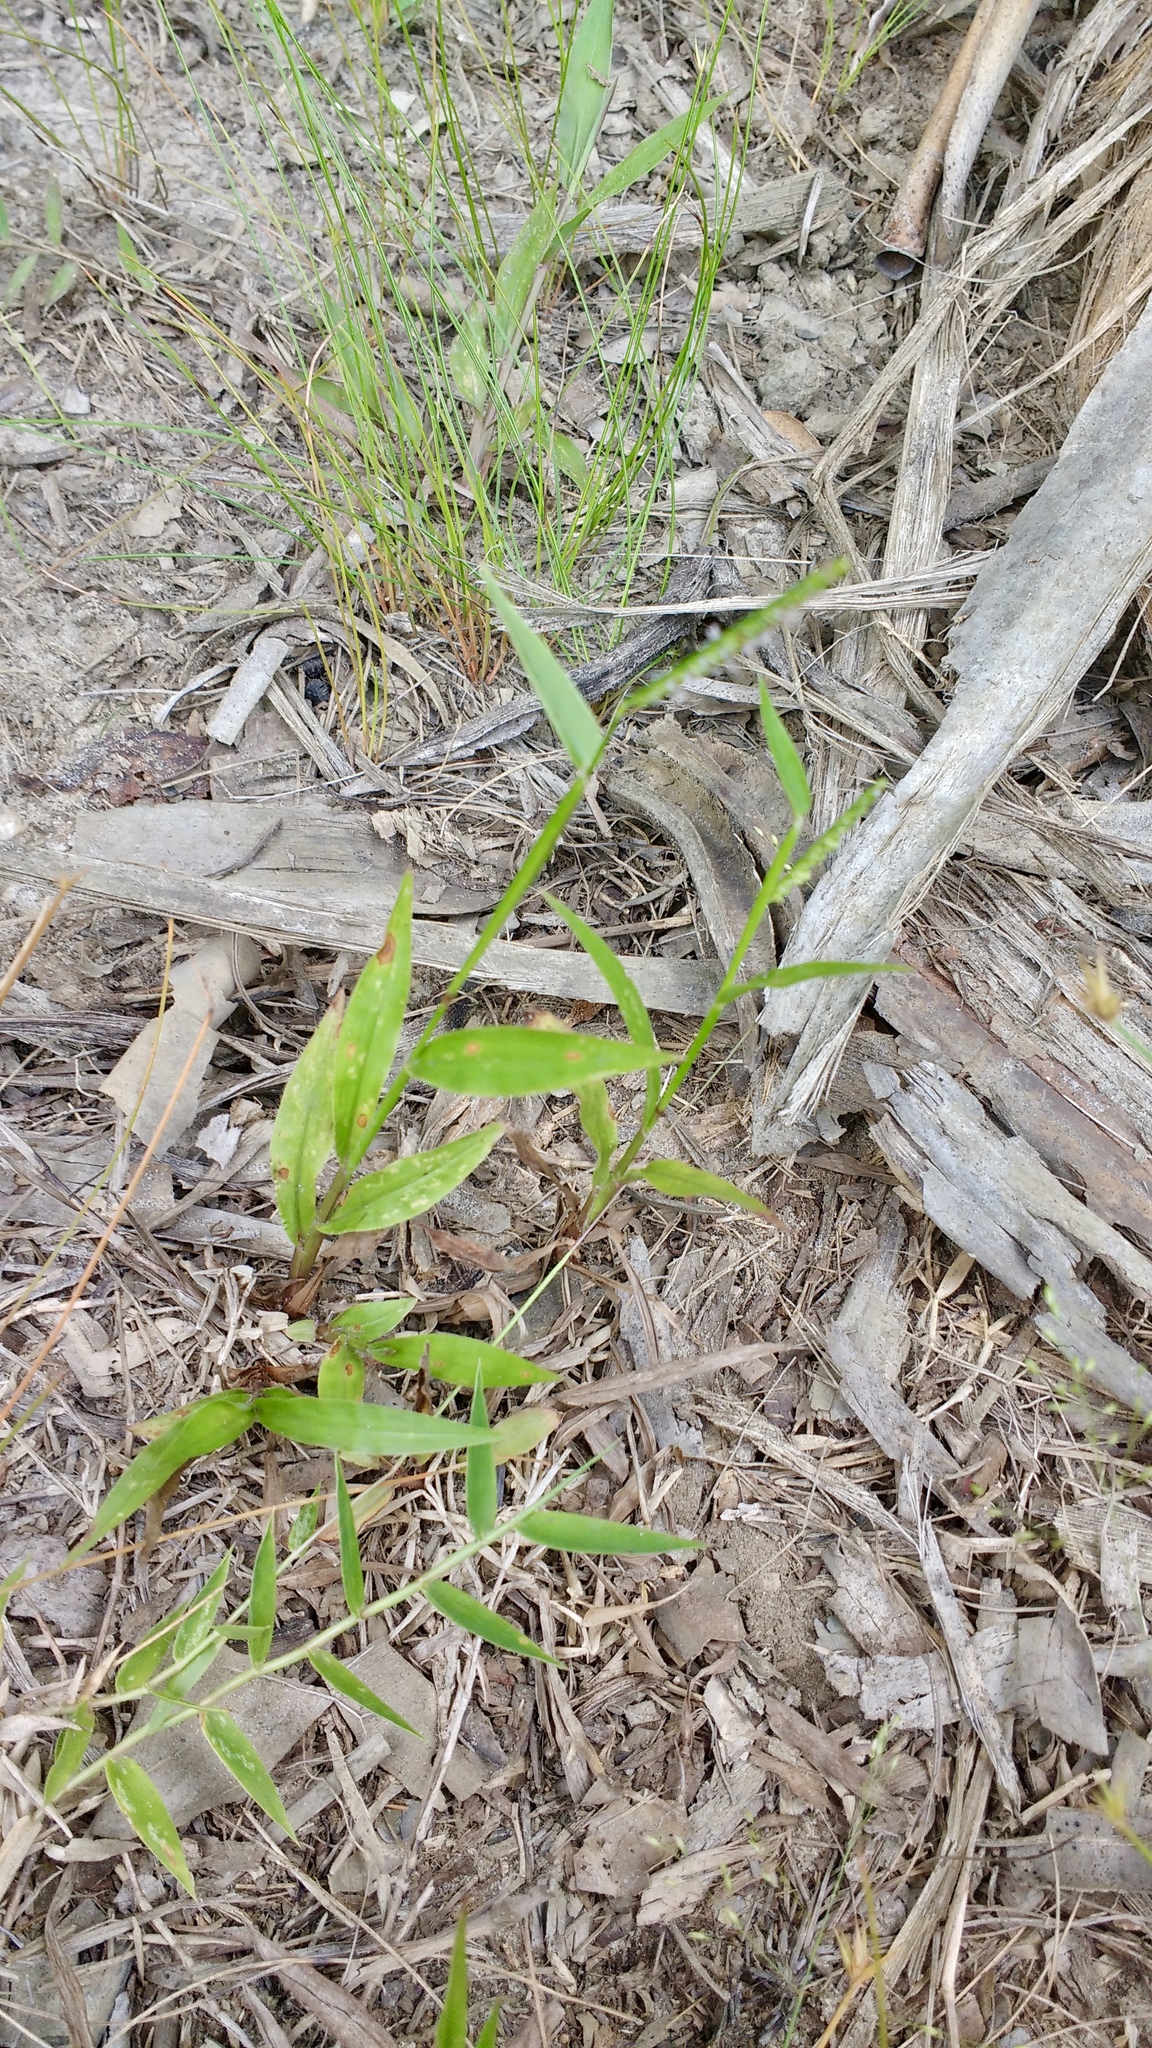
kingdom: Plantae
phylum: Tracheophyta
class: Liliopsida
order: Poales
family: Poaceae
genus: Paspalum
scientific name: Paspalum nutans
